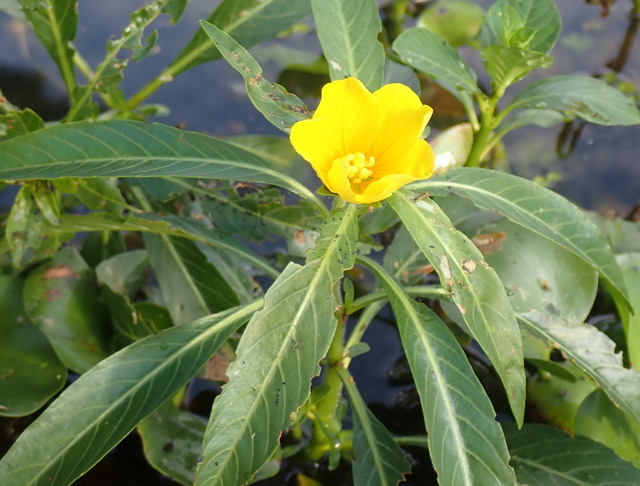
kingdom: Plantae
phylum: Tracheophyta
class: Magnoliopsida
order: Myrtales
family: Onagraceae
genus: Ludwigia
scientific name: Ludwigia hexapetala
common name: Water-primrose
